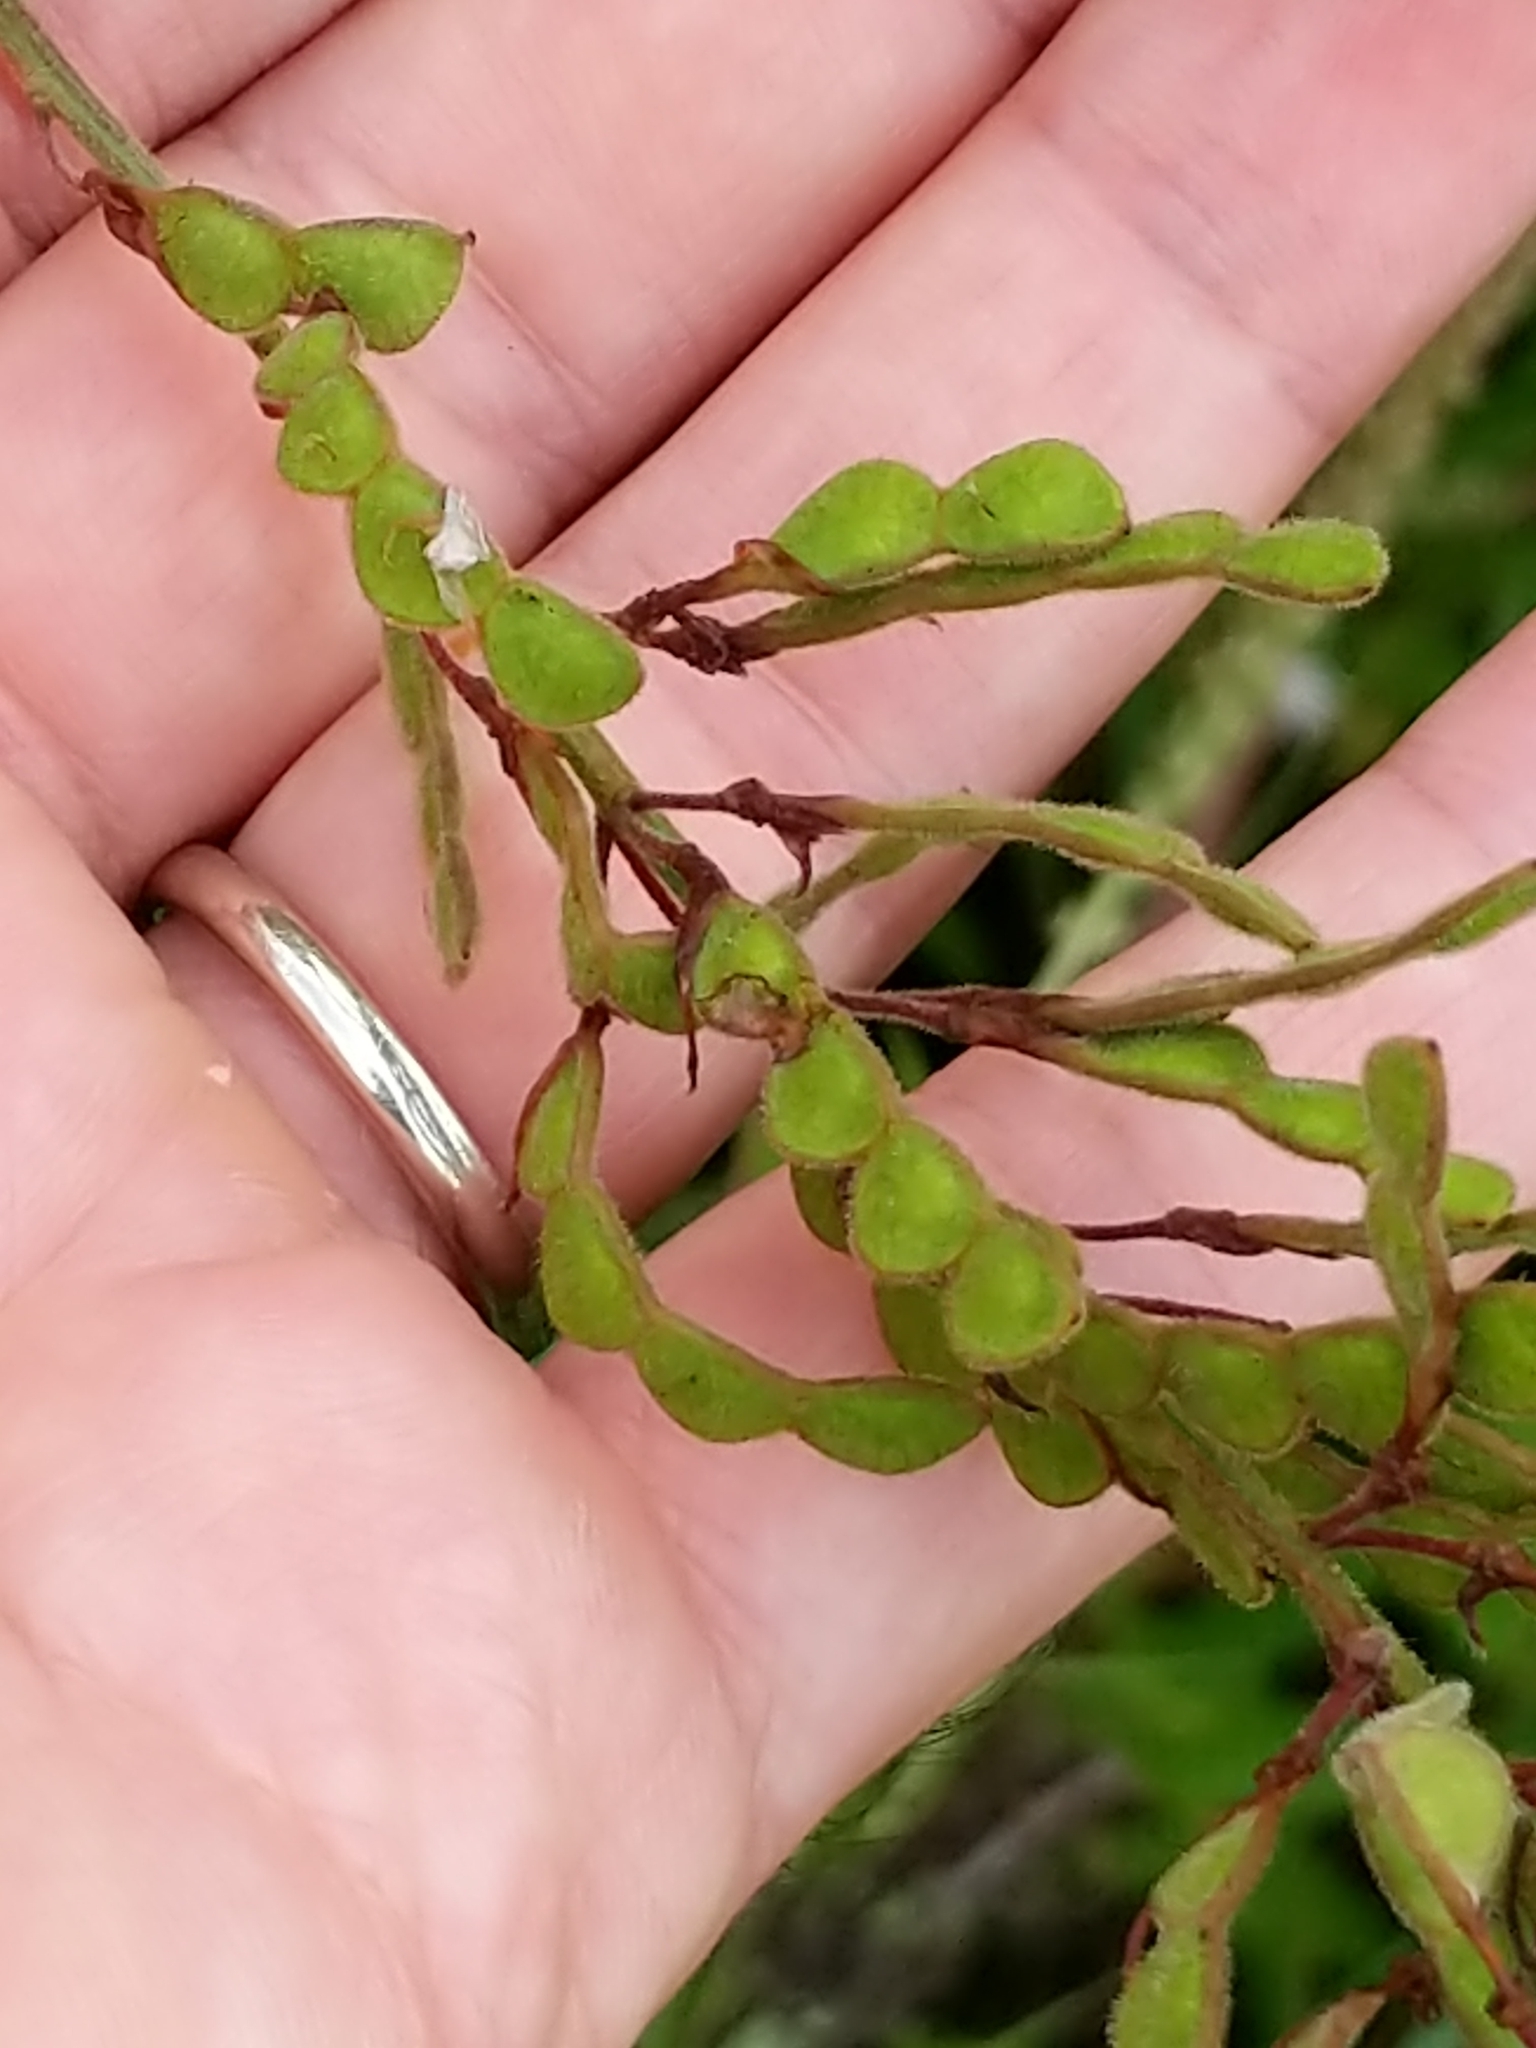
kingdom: Plantae
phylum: Tracheophyta
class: Magnoliopsida
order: Fabales
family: Fabaceae
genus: Desmodium
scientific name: Desmodium canadense
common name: Canada tick-trefoil
